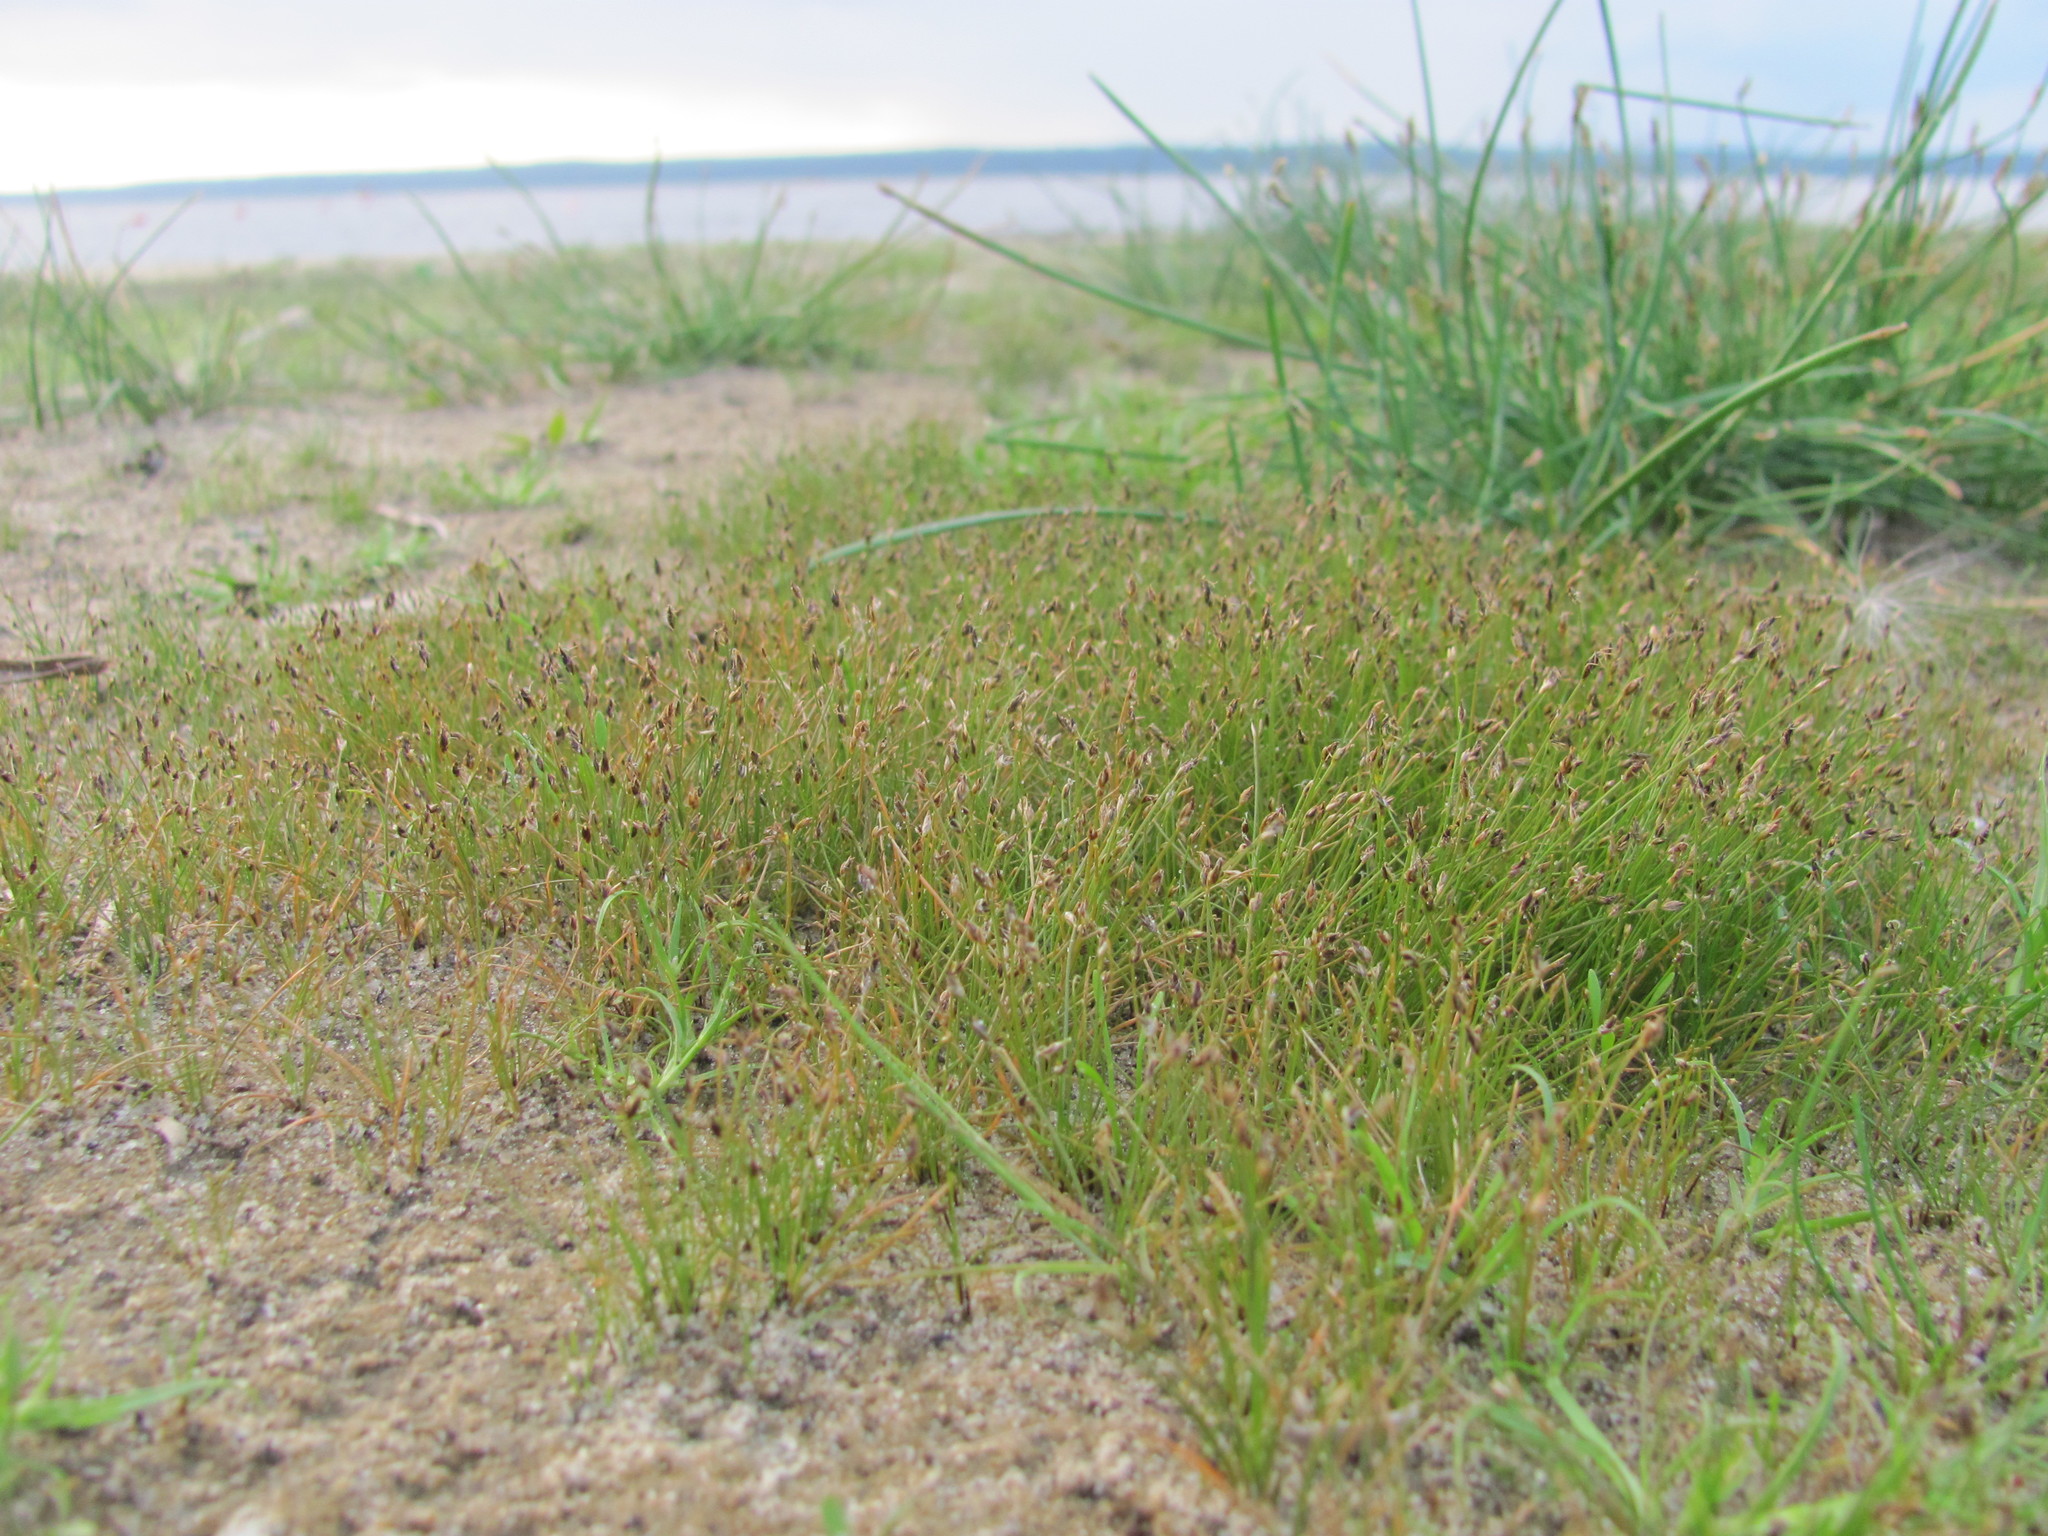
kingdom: Plantae
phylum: Tracheophyta
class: Liliopsida
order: Poales
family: Cyperaceae
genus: Eleocharis
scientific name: Eleocharis acicularis
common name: Needle spike-rush
